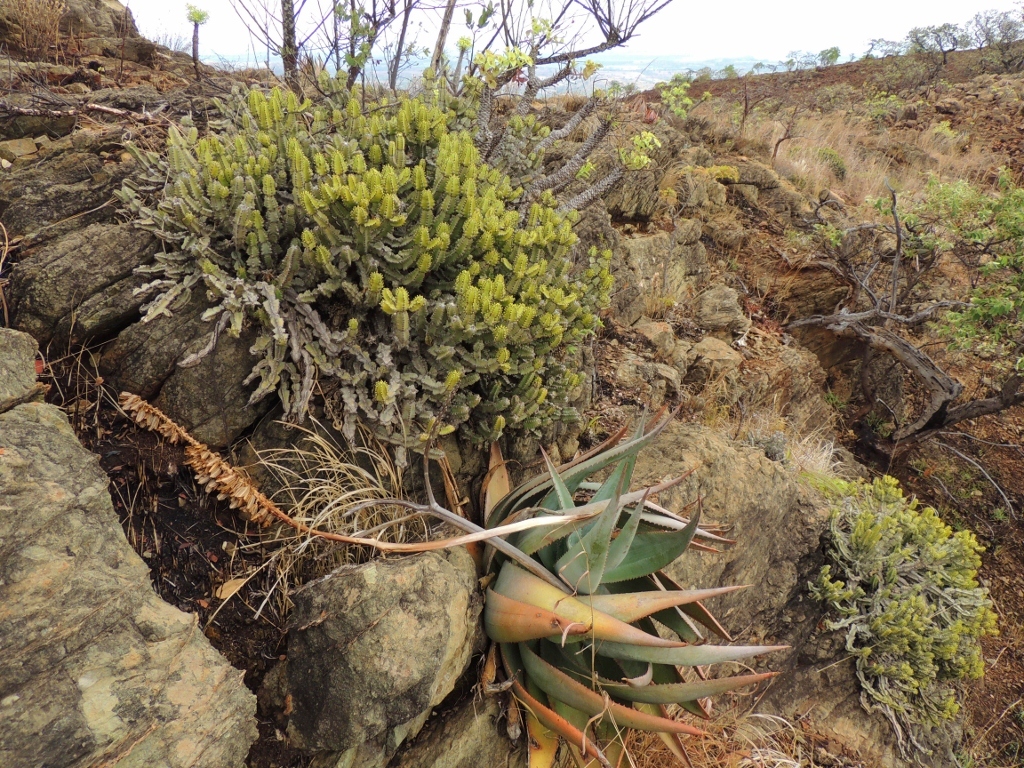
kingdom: Plantae
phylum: Tracheophyta
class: Magnoliopsida
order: Malpighiales
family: Euphorbiaceae
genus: Euphorbia
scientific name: Euphorbia memoralis
